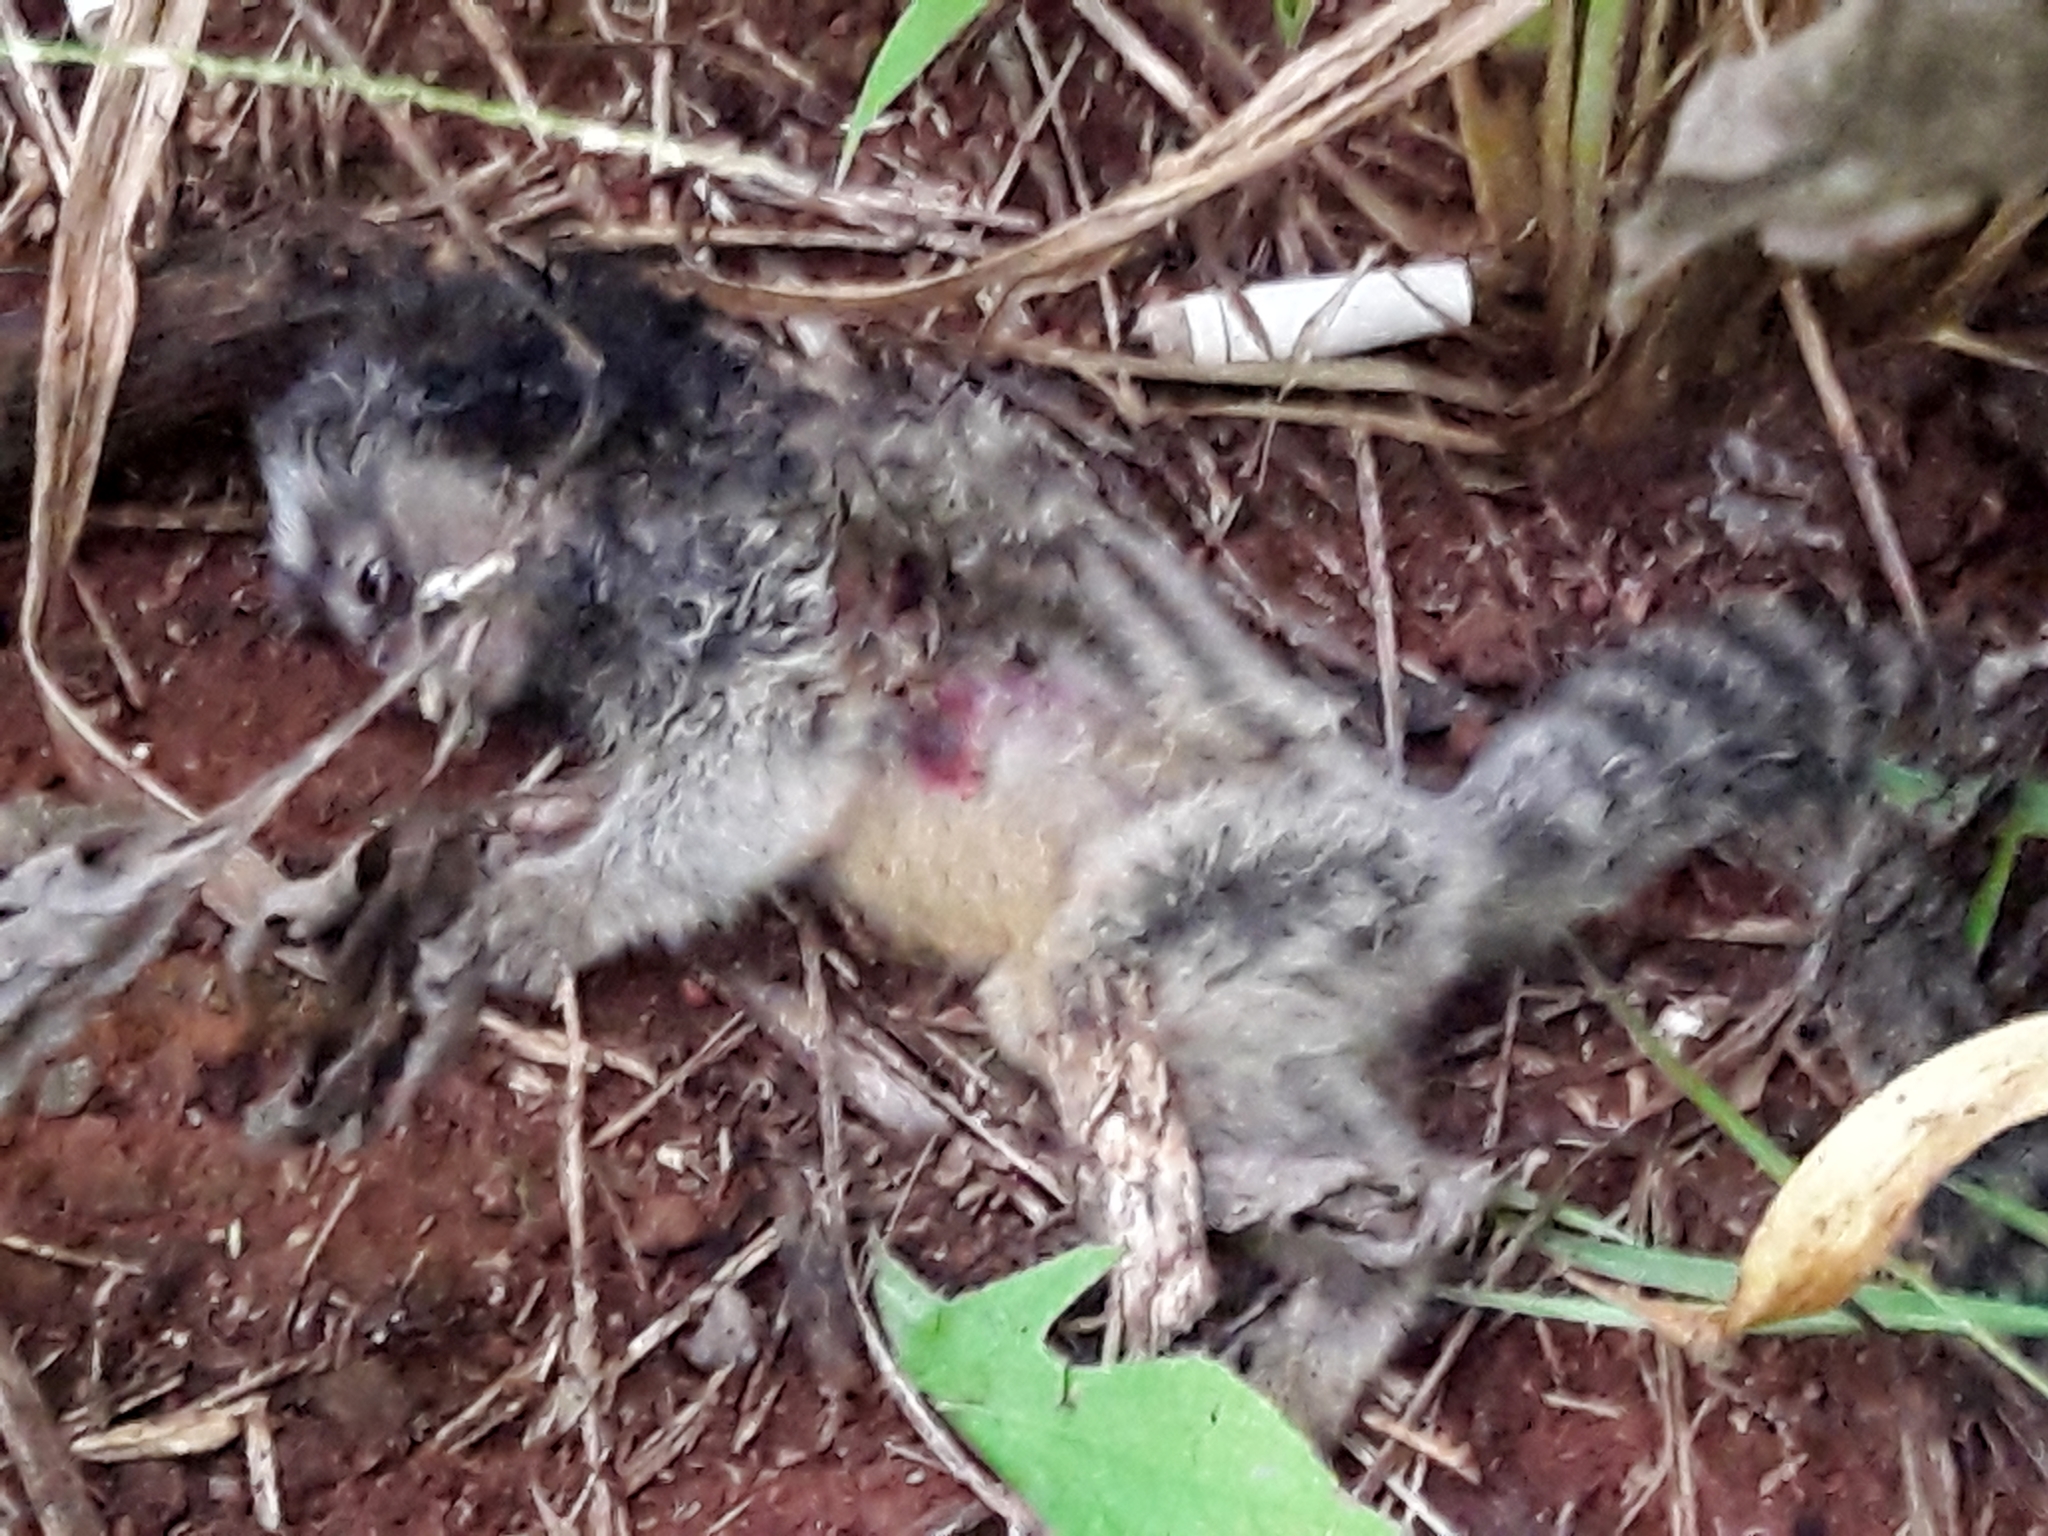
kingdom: Animalia
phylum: Chordata
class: Mammalia
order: Primates
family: Callitrichidae
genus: Callithrix
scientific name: Callithrix penicillata
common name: Black-tufted marmoset
